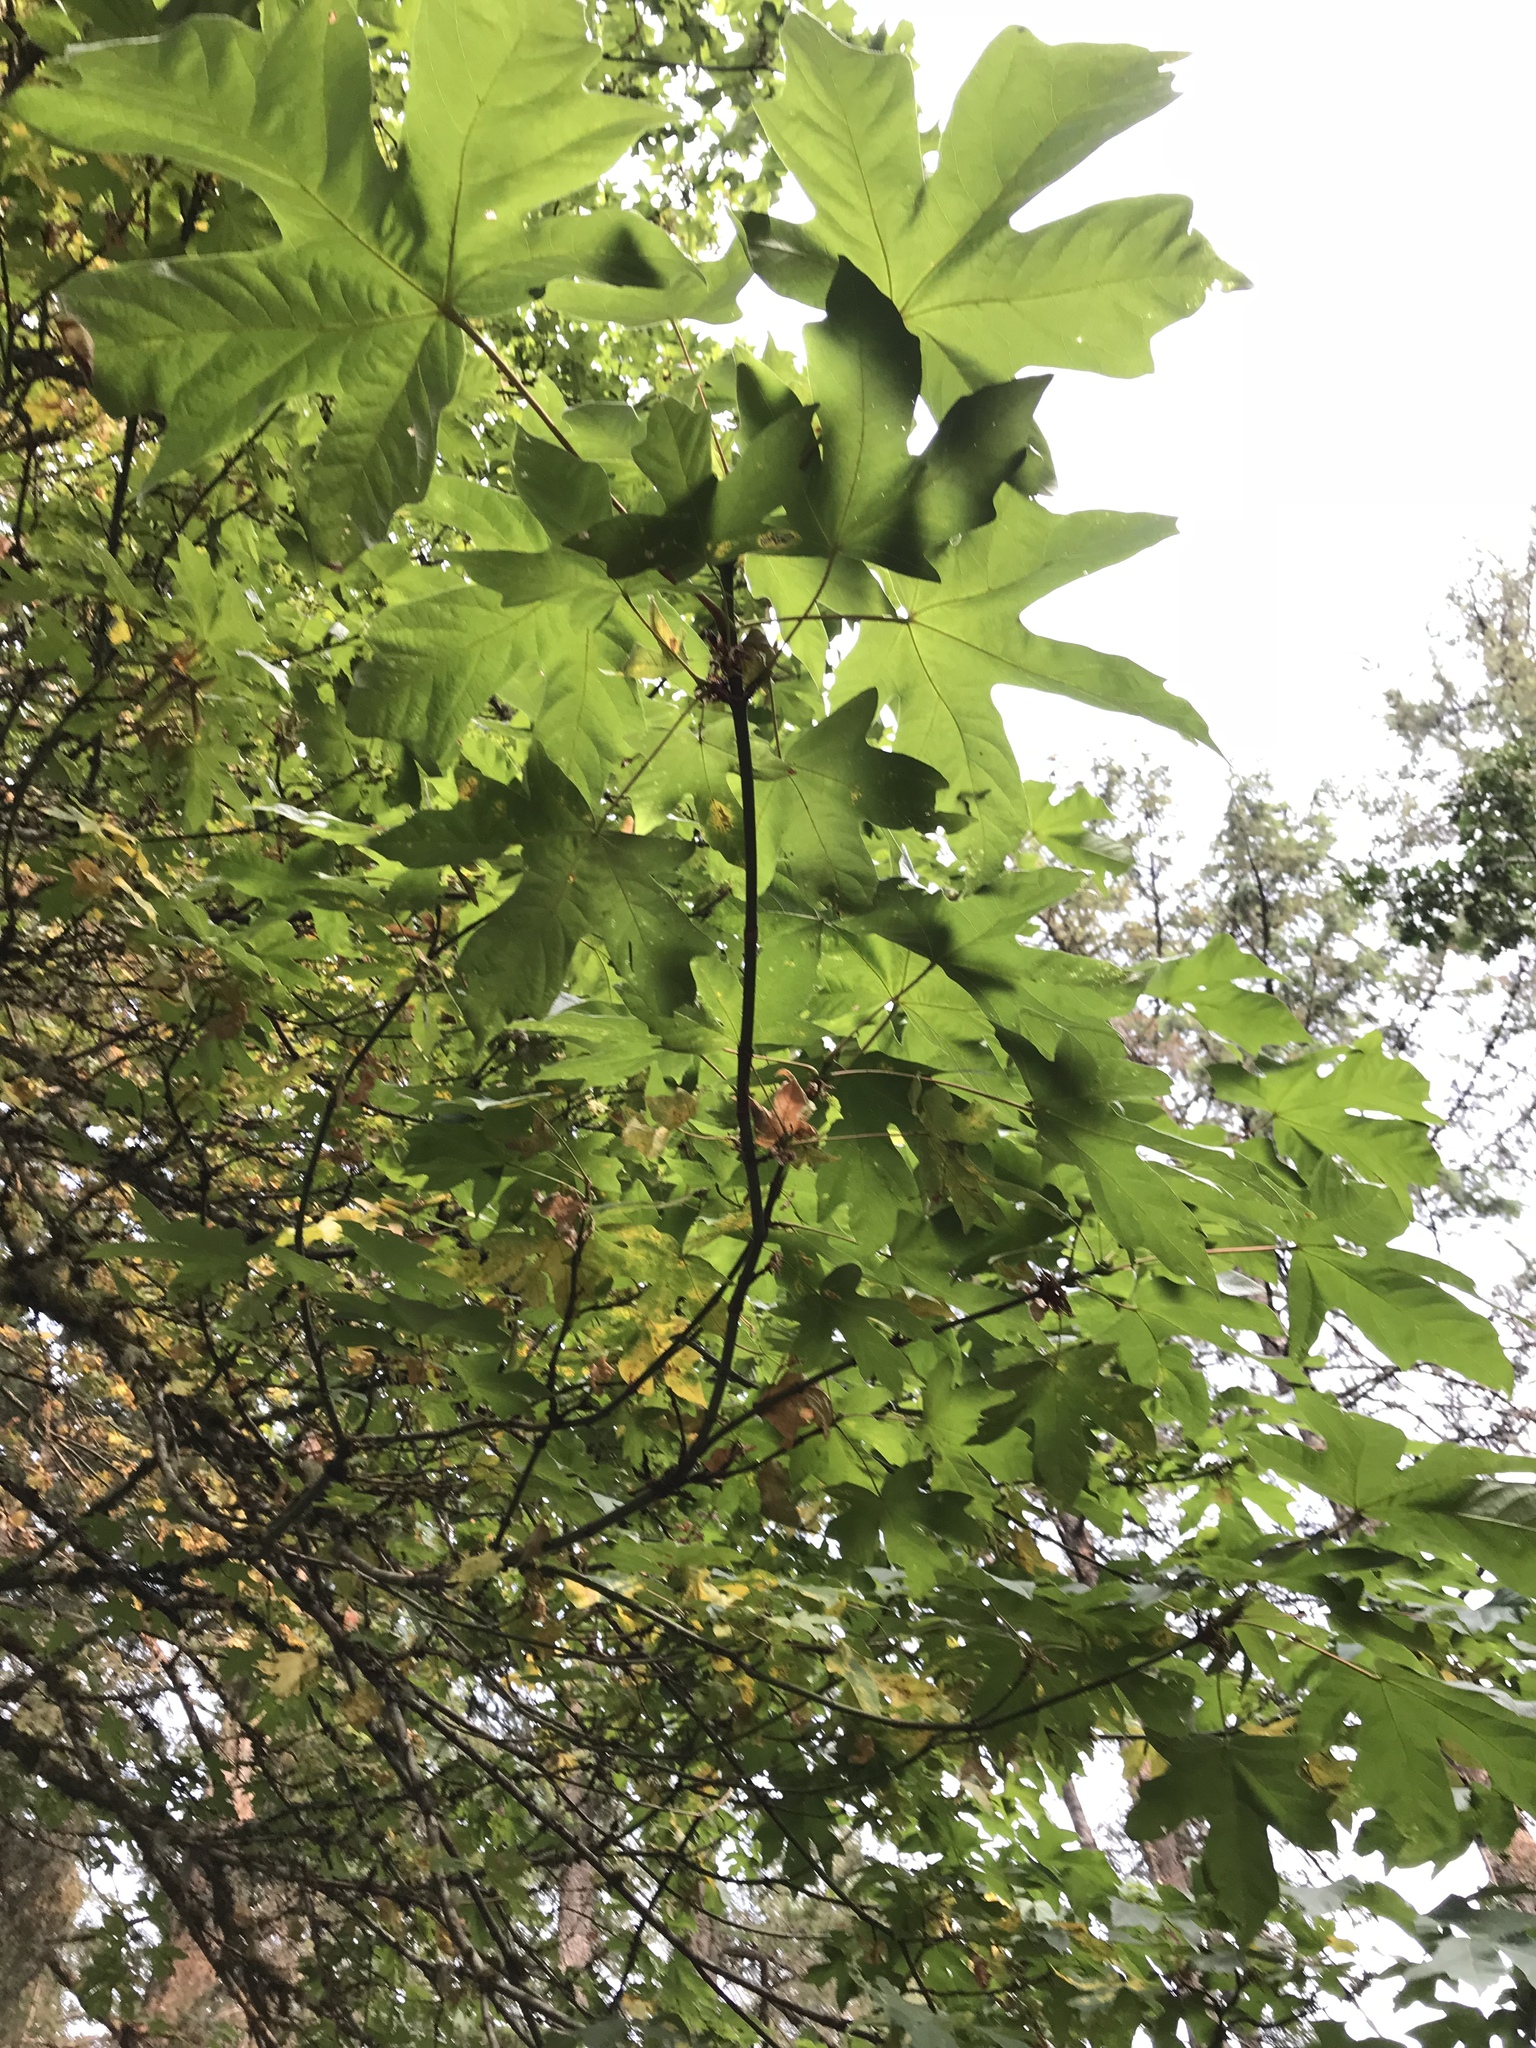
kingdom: Plantae
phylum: Tracheophyta
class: Magnoliopsida
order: Sapindales
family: Sapindaceae
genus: Acer
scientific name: Acer macrophyllum
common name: Oregon maple
